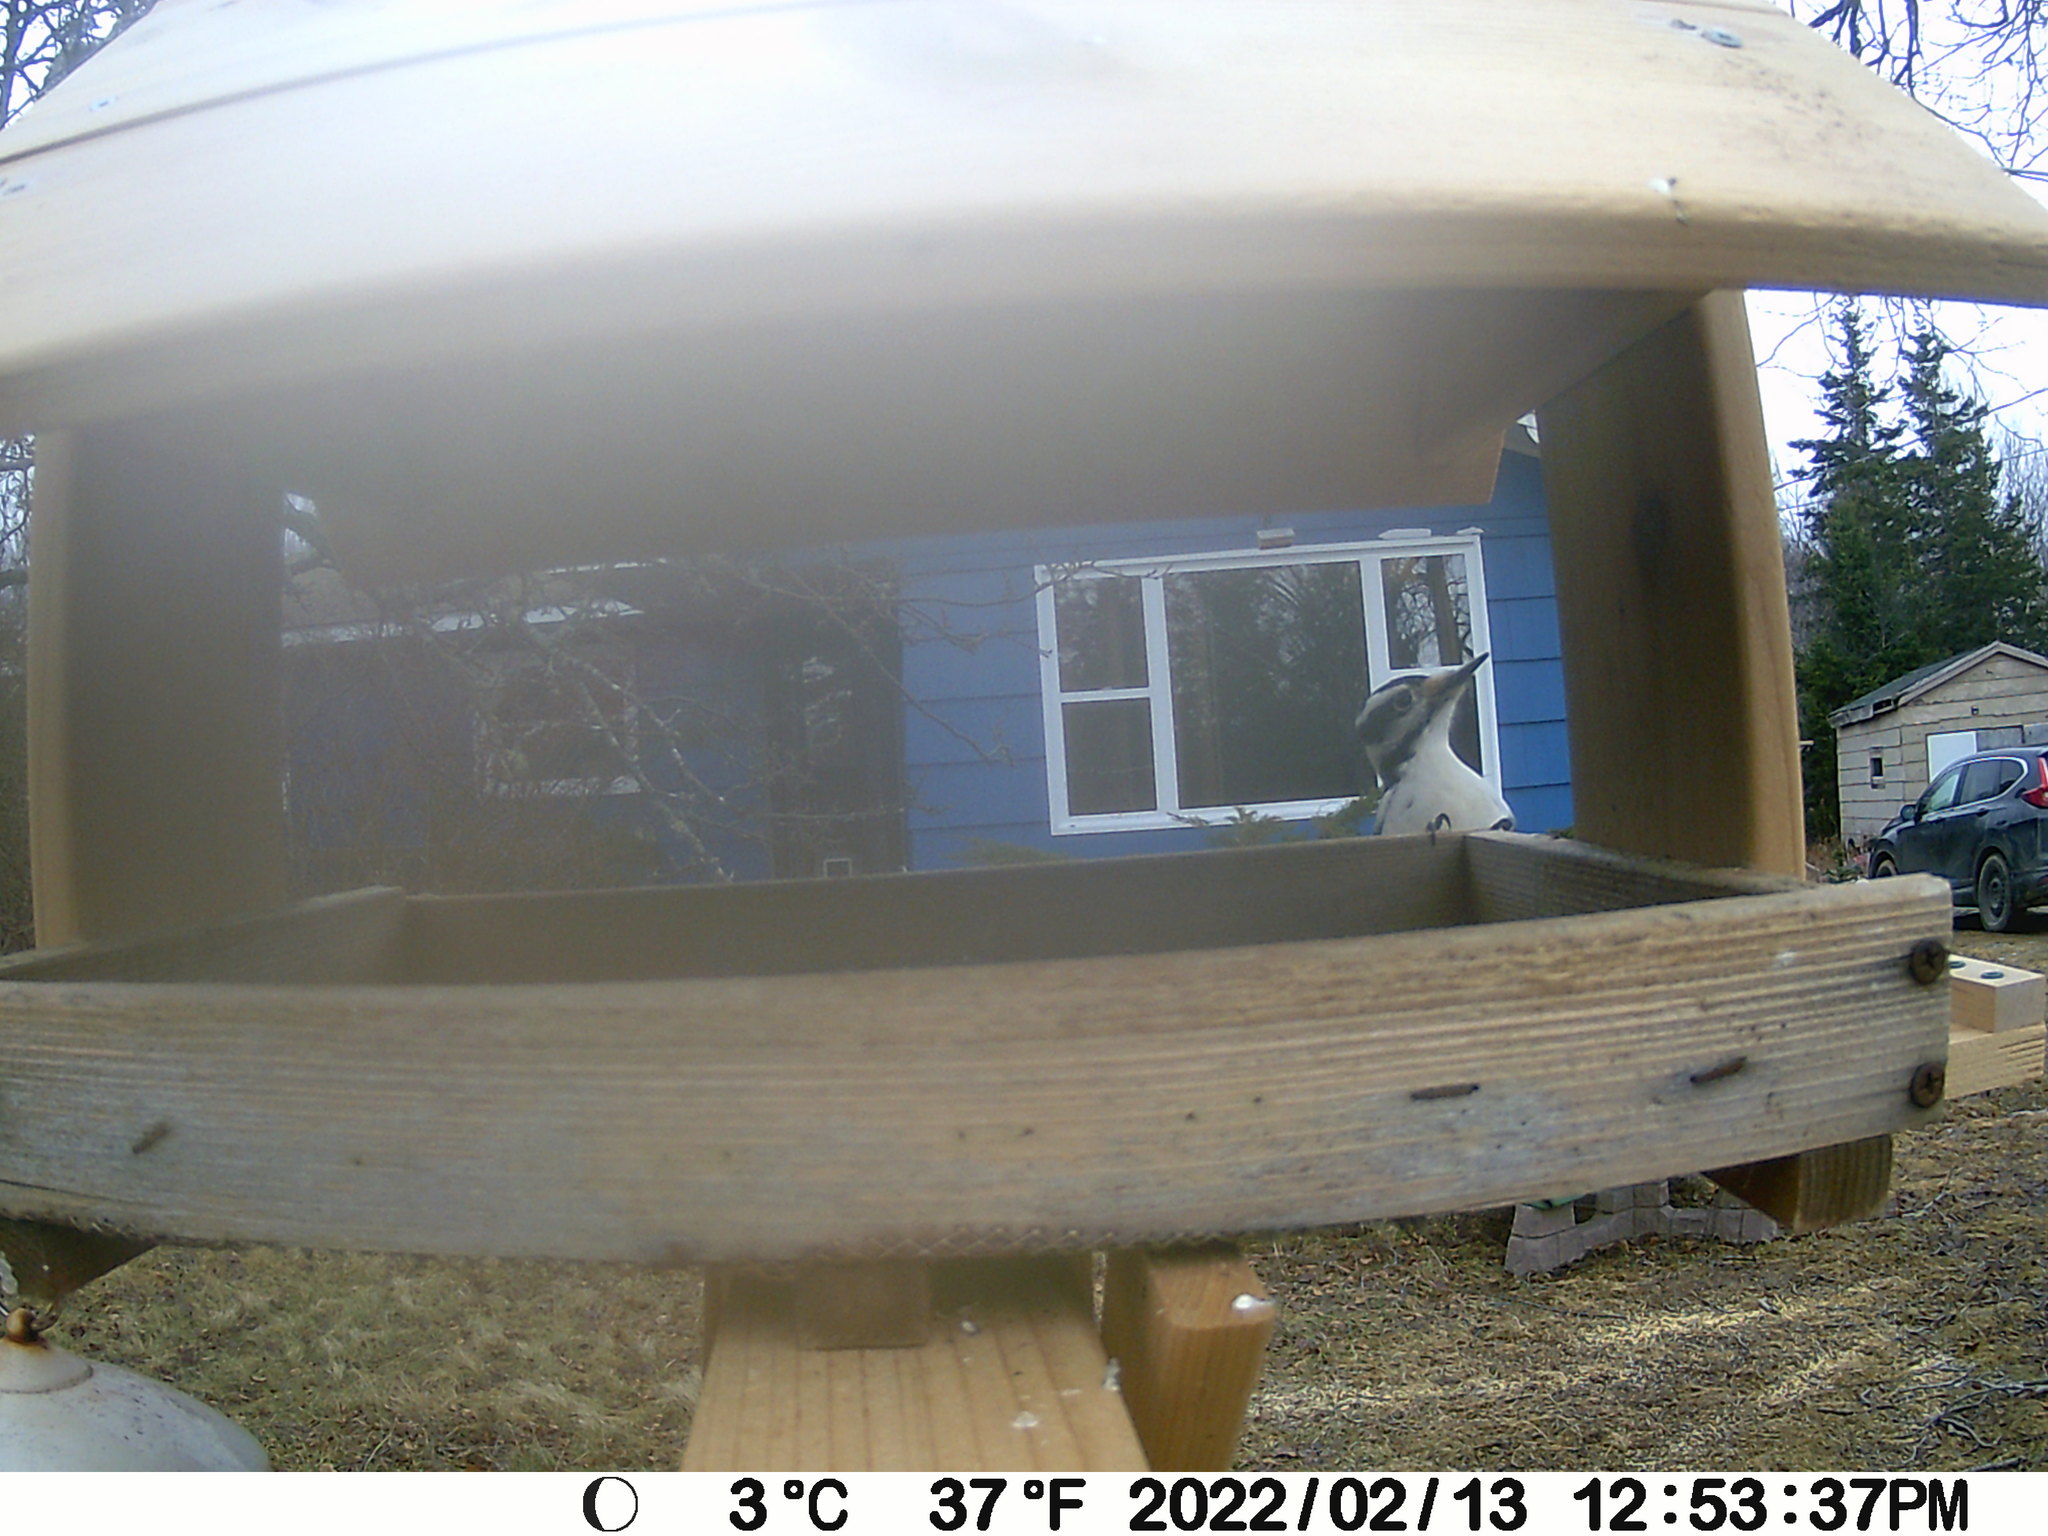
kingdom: Animalia
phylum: Chordata
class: Aves
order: Piciformes
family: Picidae
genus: Leuconotopicus
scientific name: Leuconotopicus villosus
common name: Hairy woodpecker
